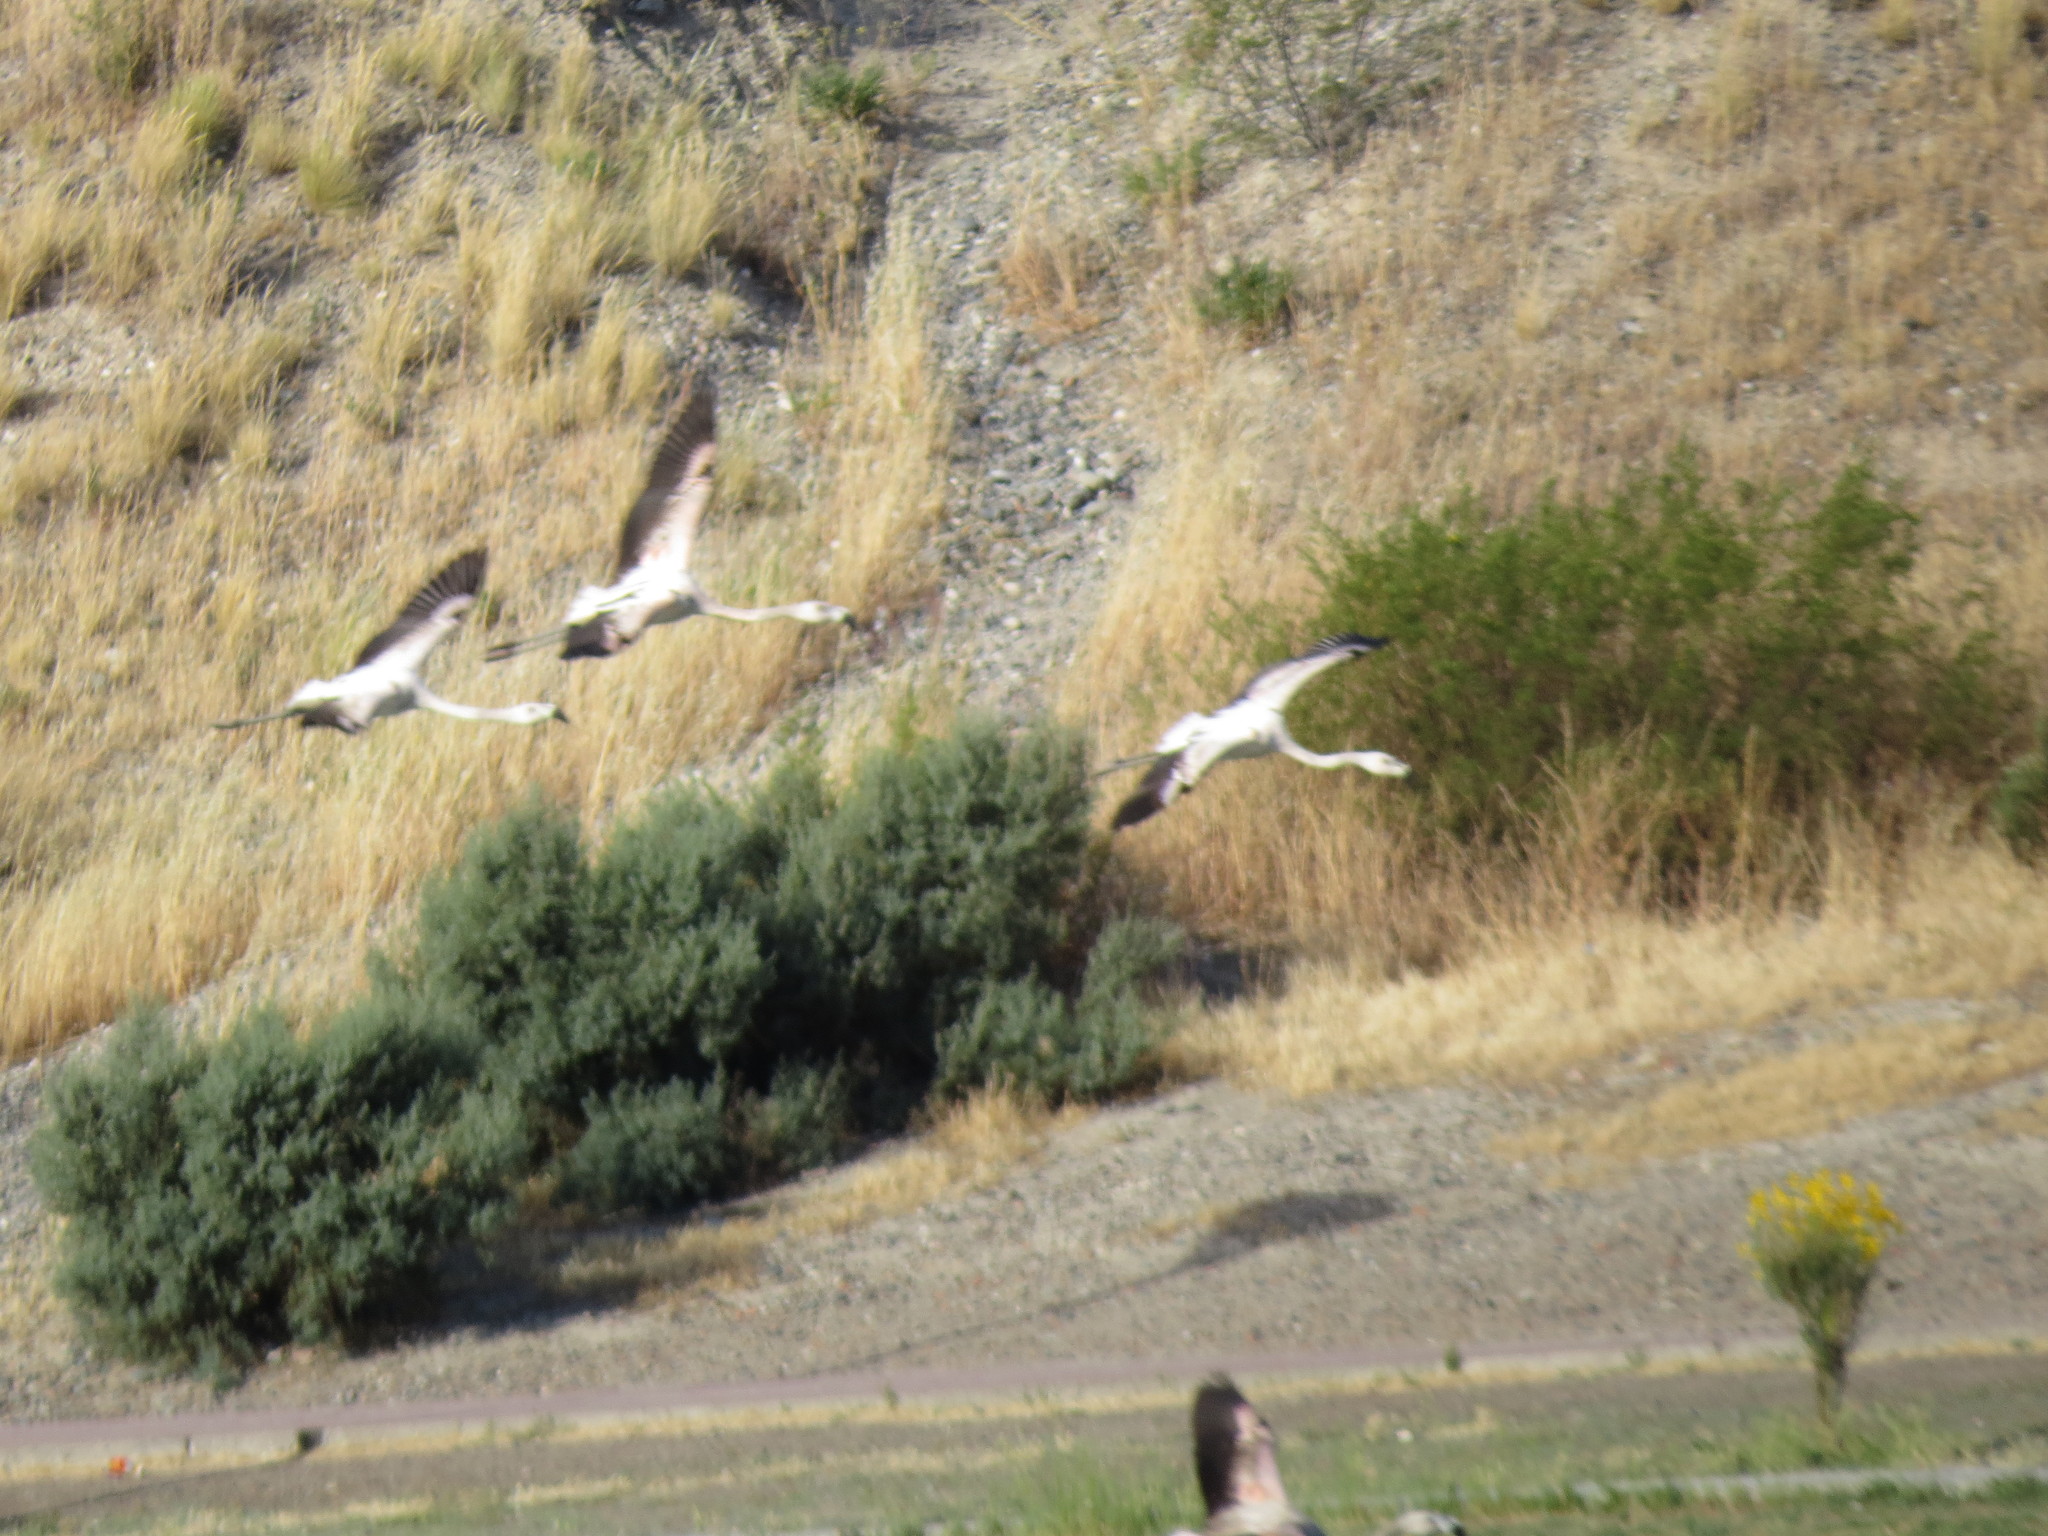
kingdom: Animalia
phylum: Chordata
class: Aves
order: Phoenicopteriformes
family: Phoenicopteridae
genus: Phoenicopterus
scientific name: Phoenicopterus chilensis
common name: Chilean flamingo
